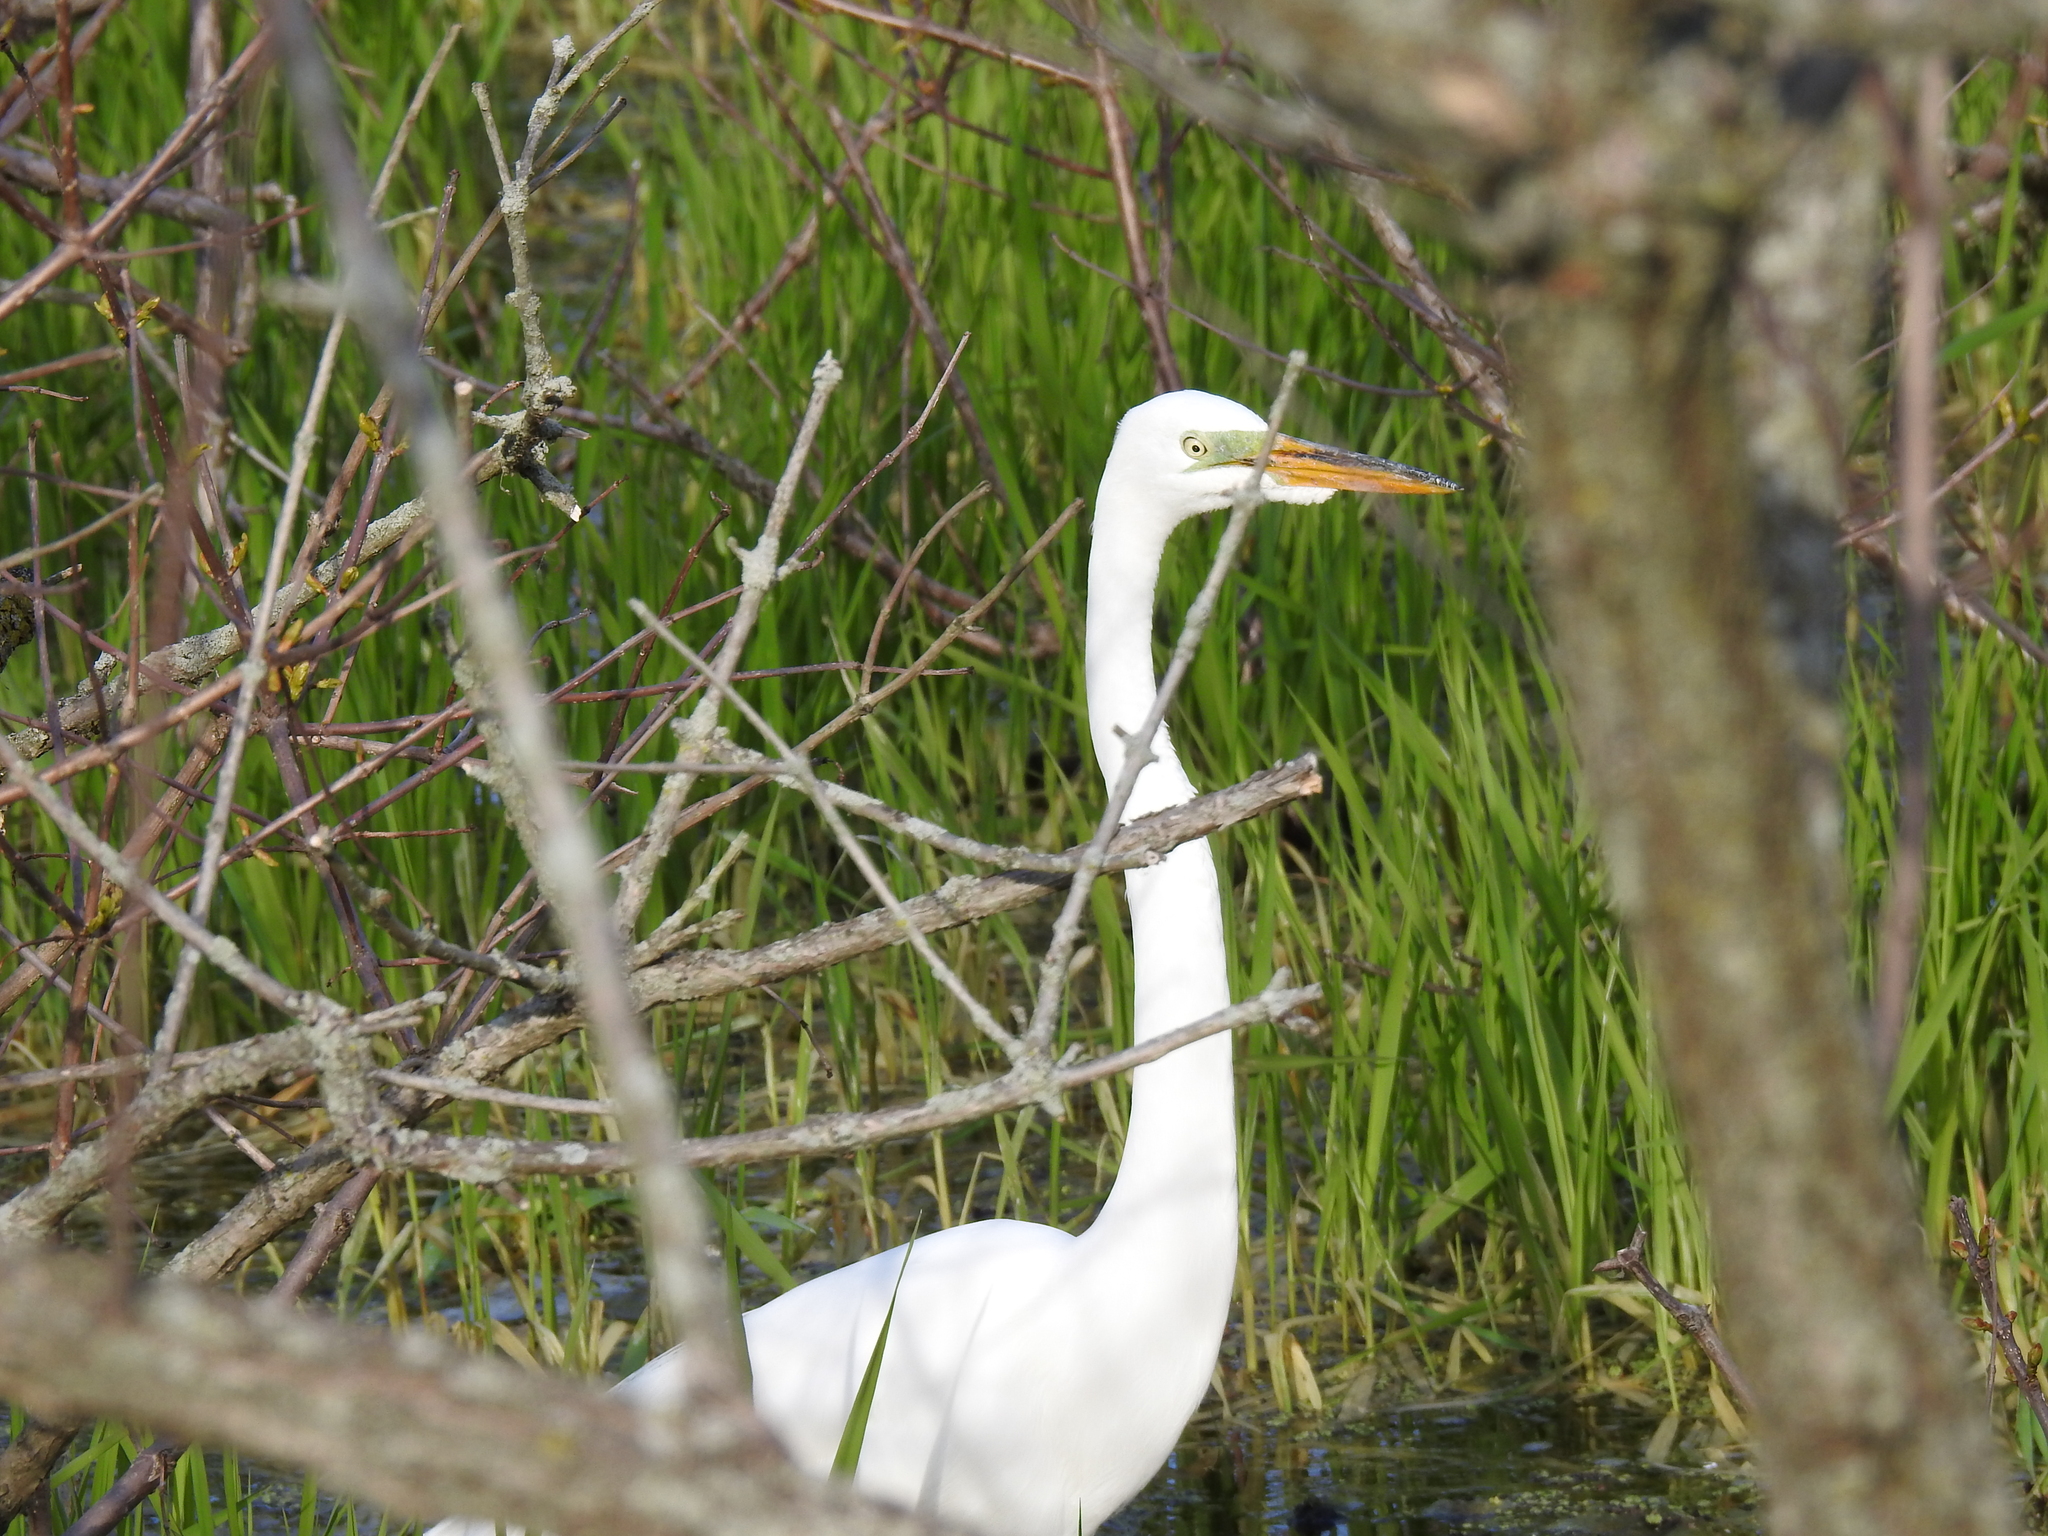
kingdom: Animalia
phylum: Chordata
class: Aves
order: Pelecaniformes
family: Ardeidae
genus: Ardea
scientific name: Ardea alba
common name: Great egret
